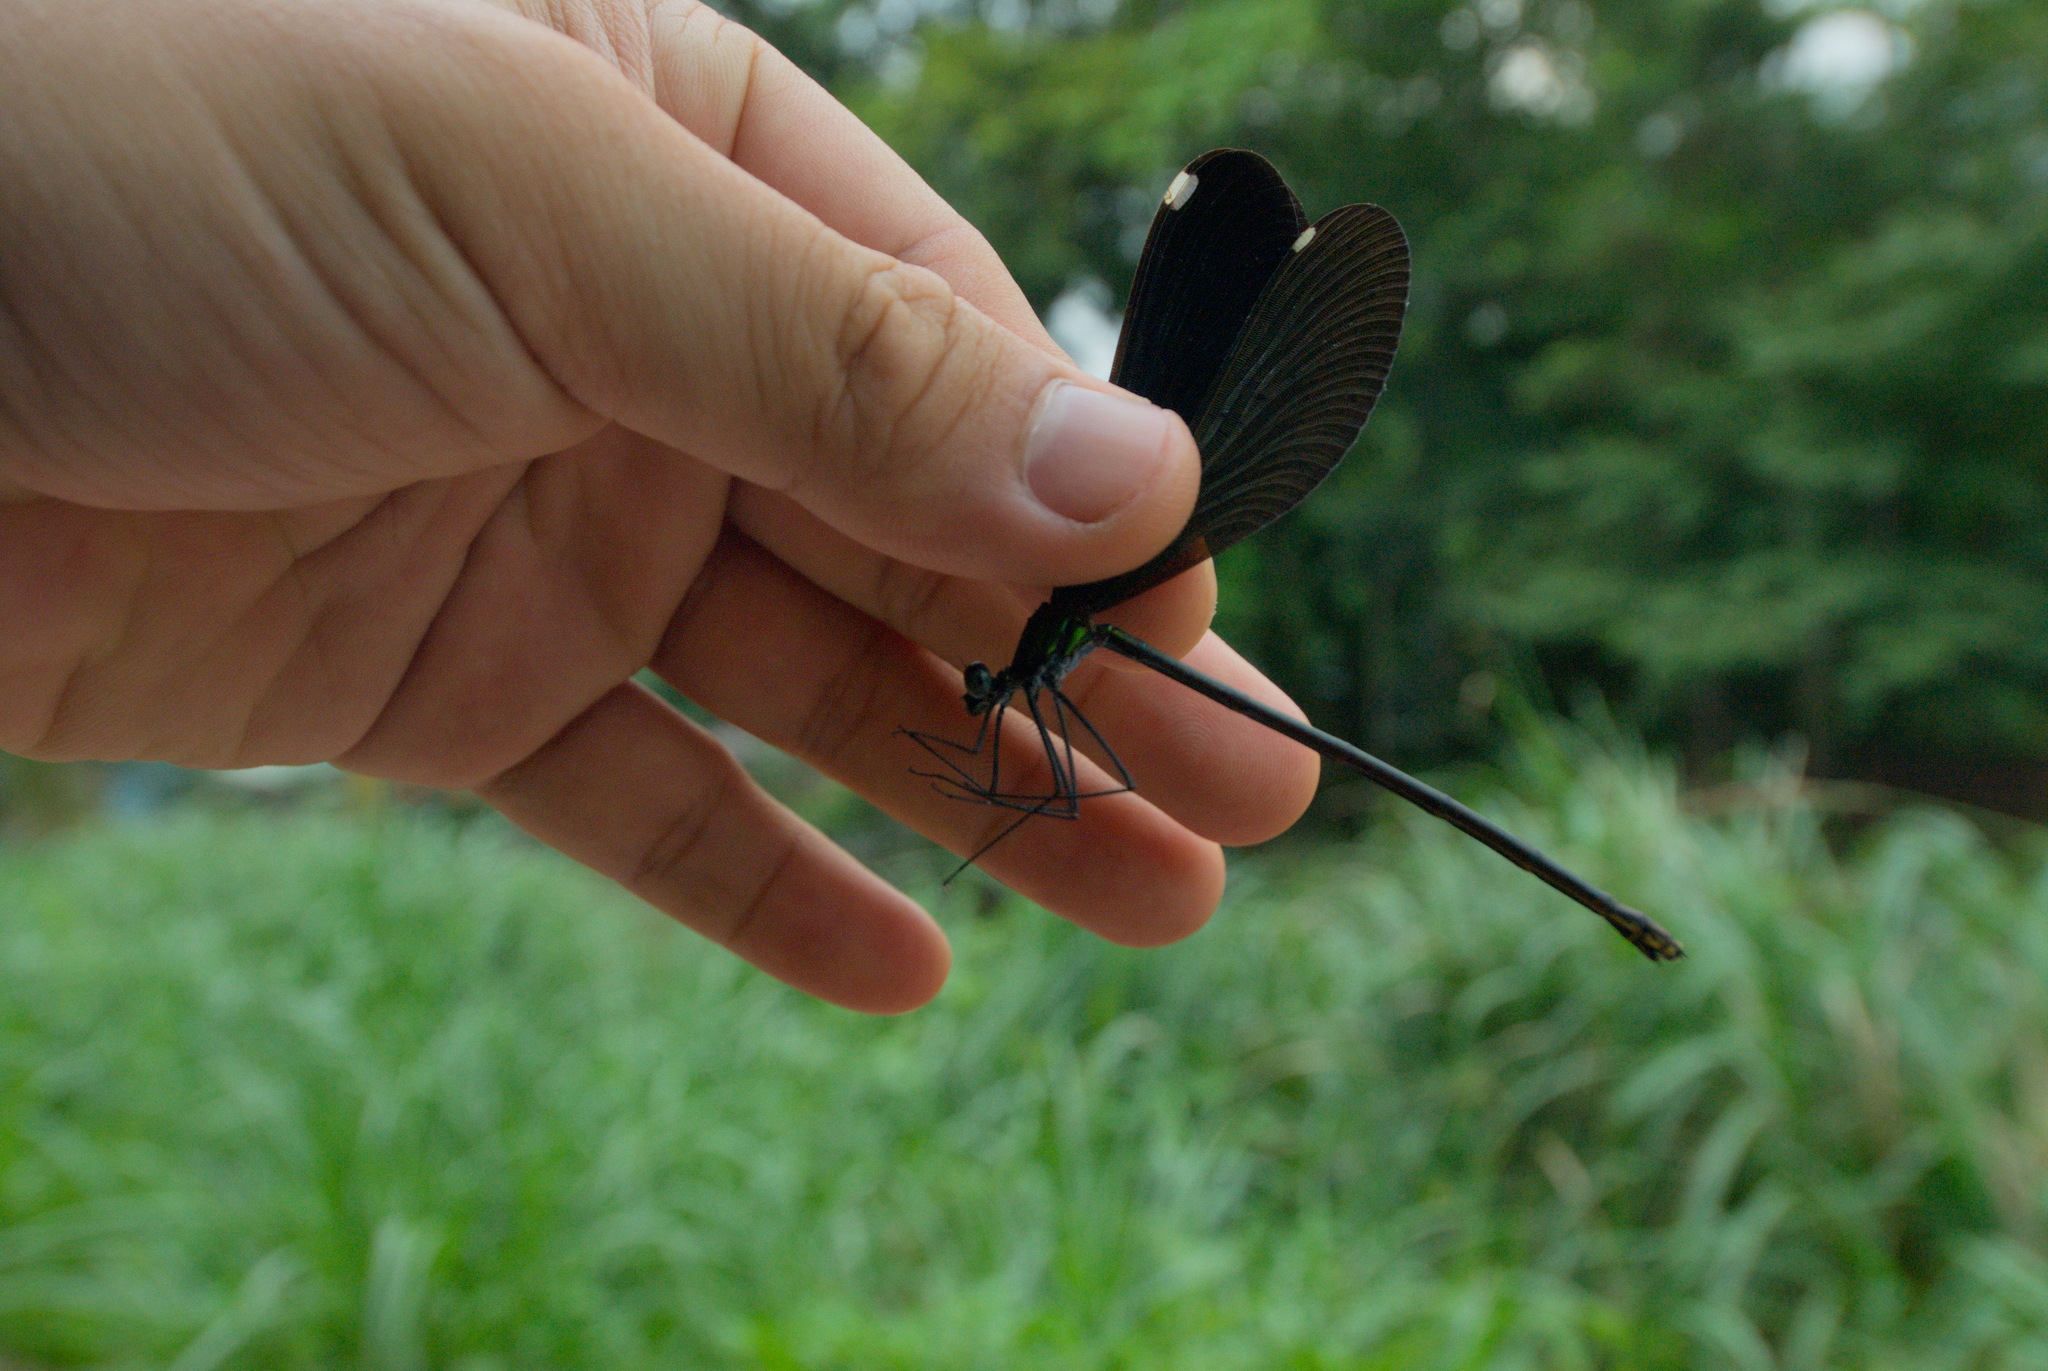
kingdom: Animalia
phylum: Arthropoda
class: Insecta
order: Odonata
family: Calopterygidae
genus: Matrona
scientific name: Matrona cyanoptera
